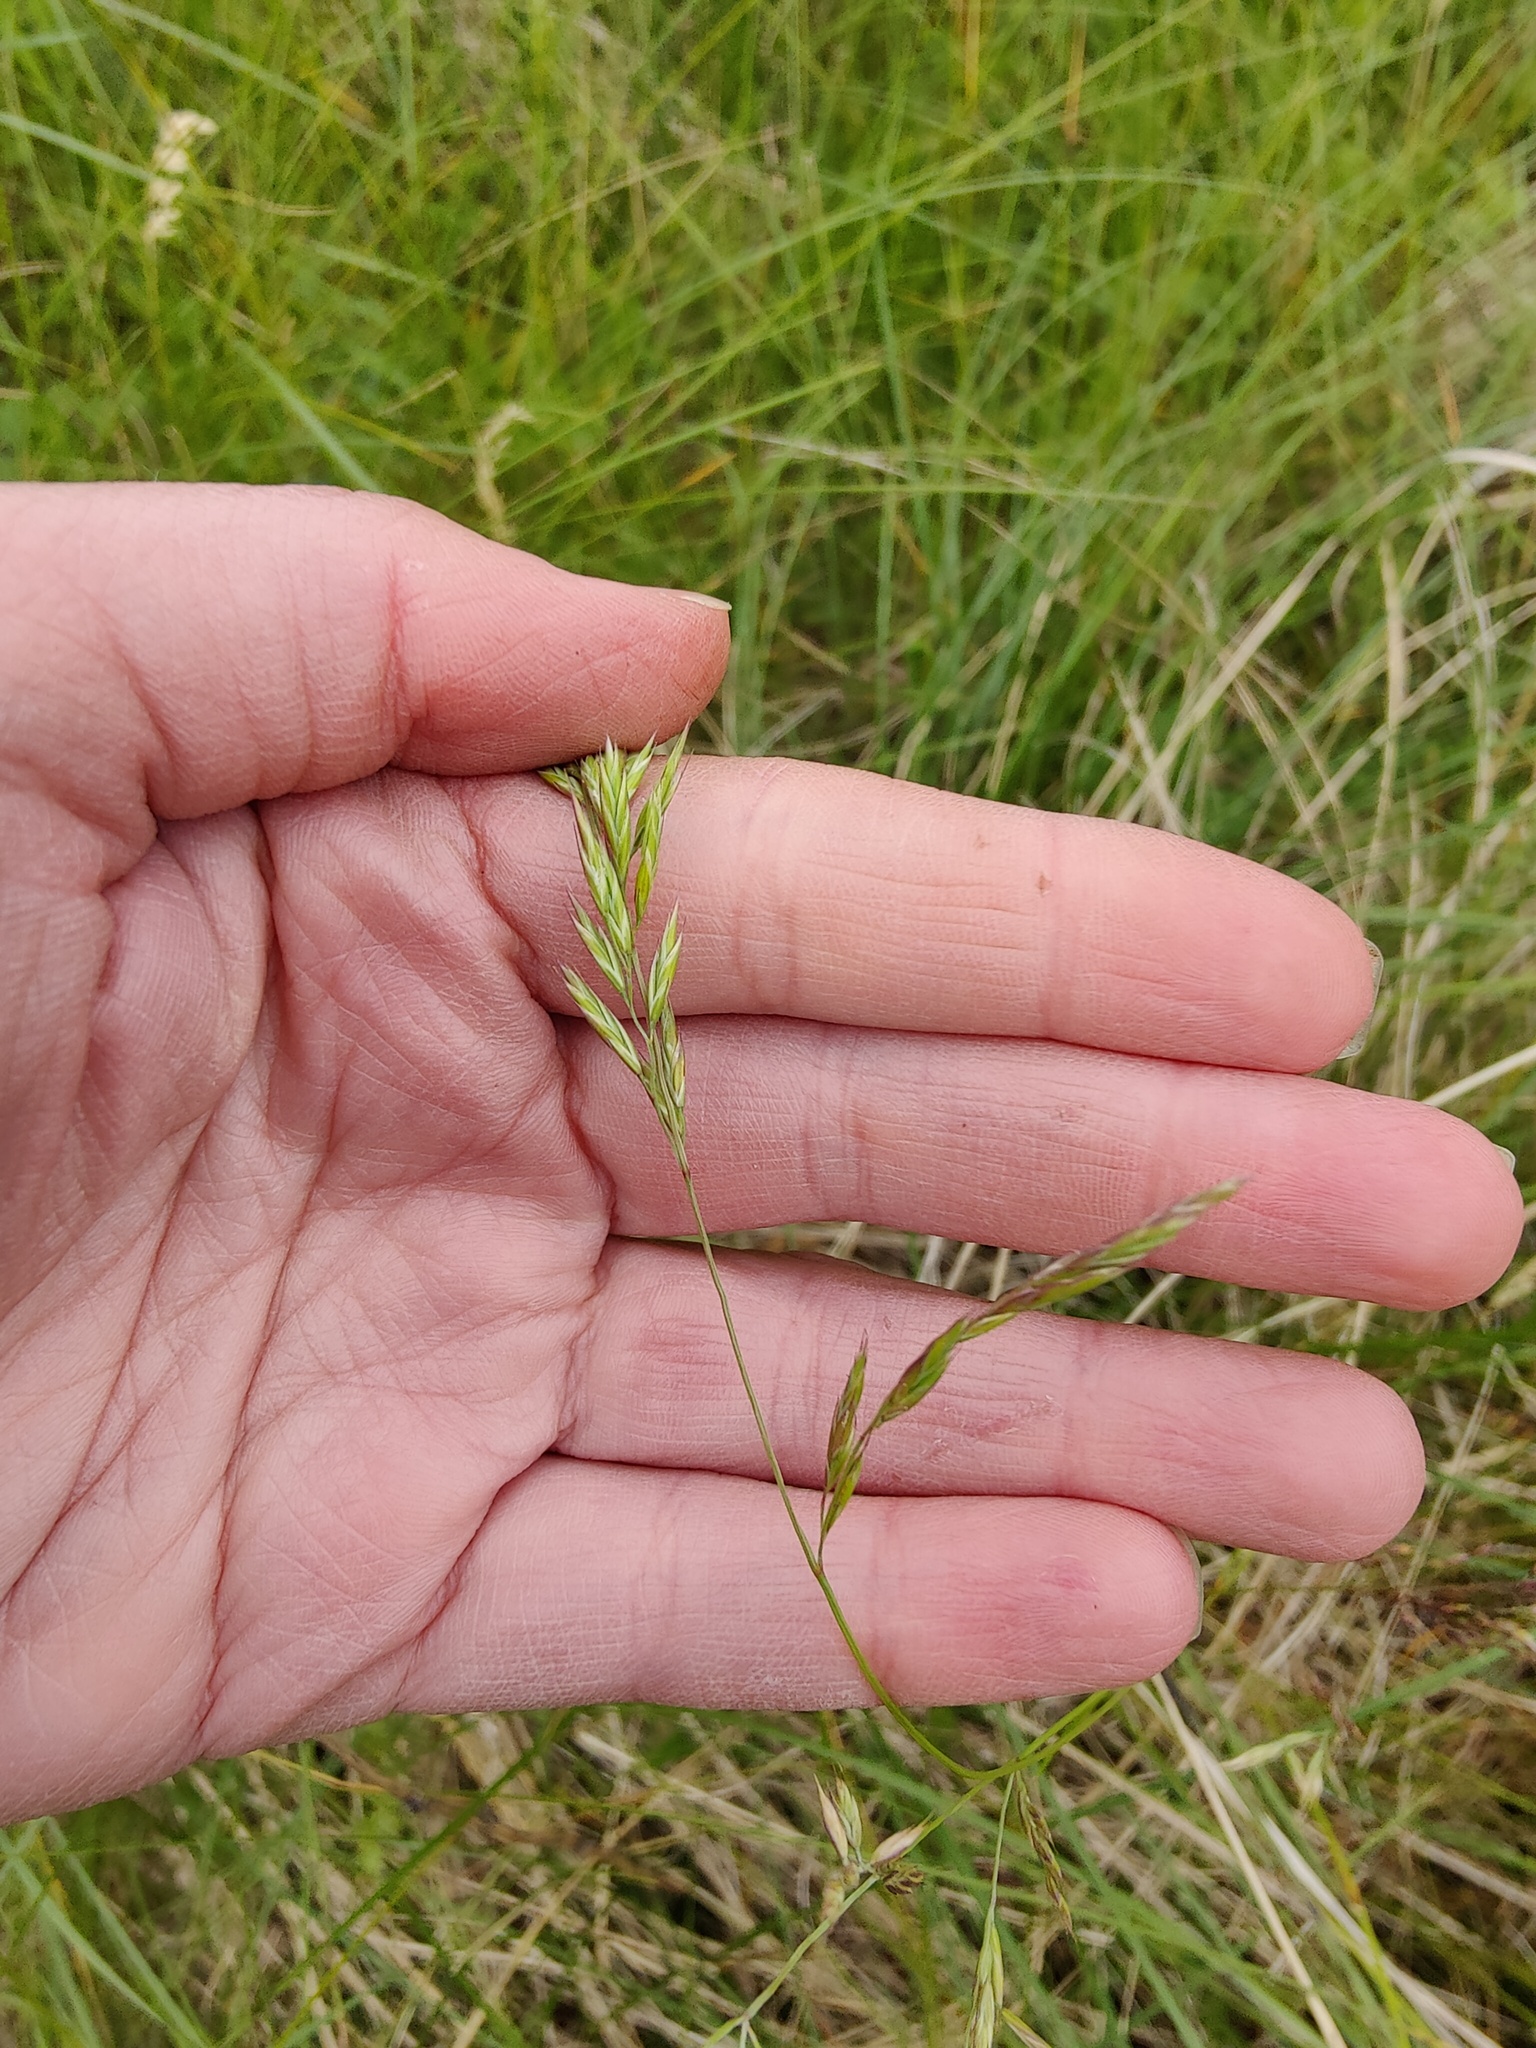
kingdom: Plantae
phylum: Tracheophyta
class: Liliopsida
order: Poales
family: Poaceae
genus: Festuca
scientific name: Festuca valesiaca
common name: Volga fescue
